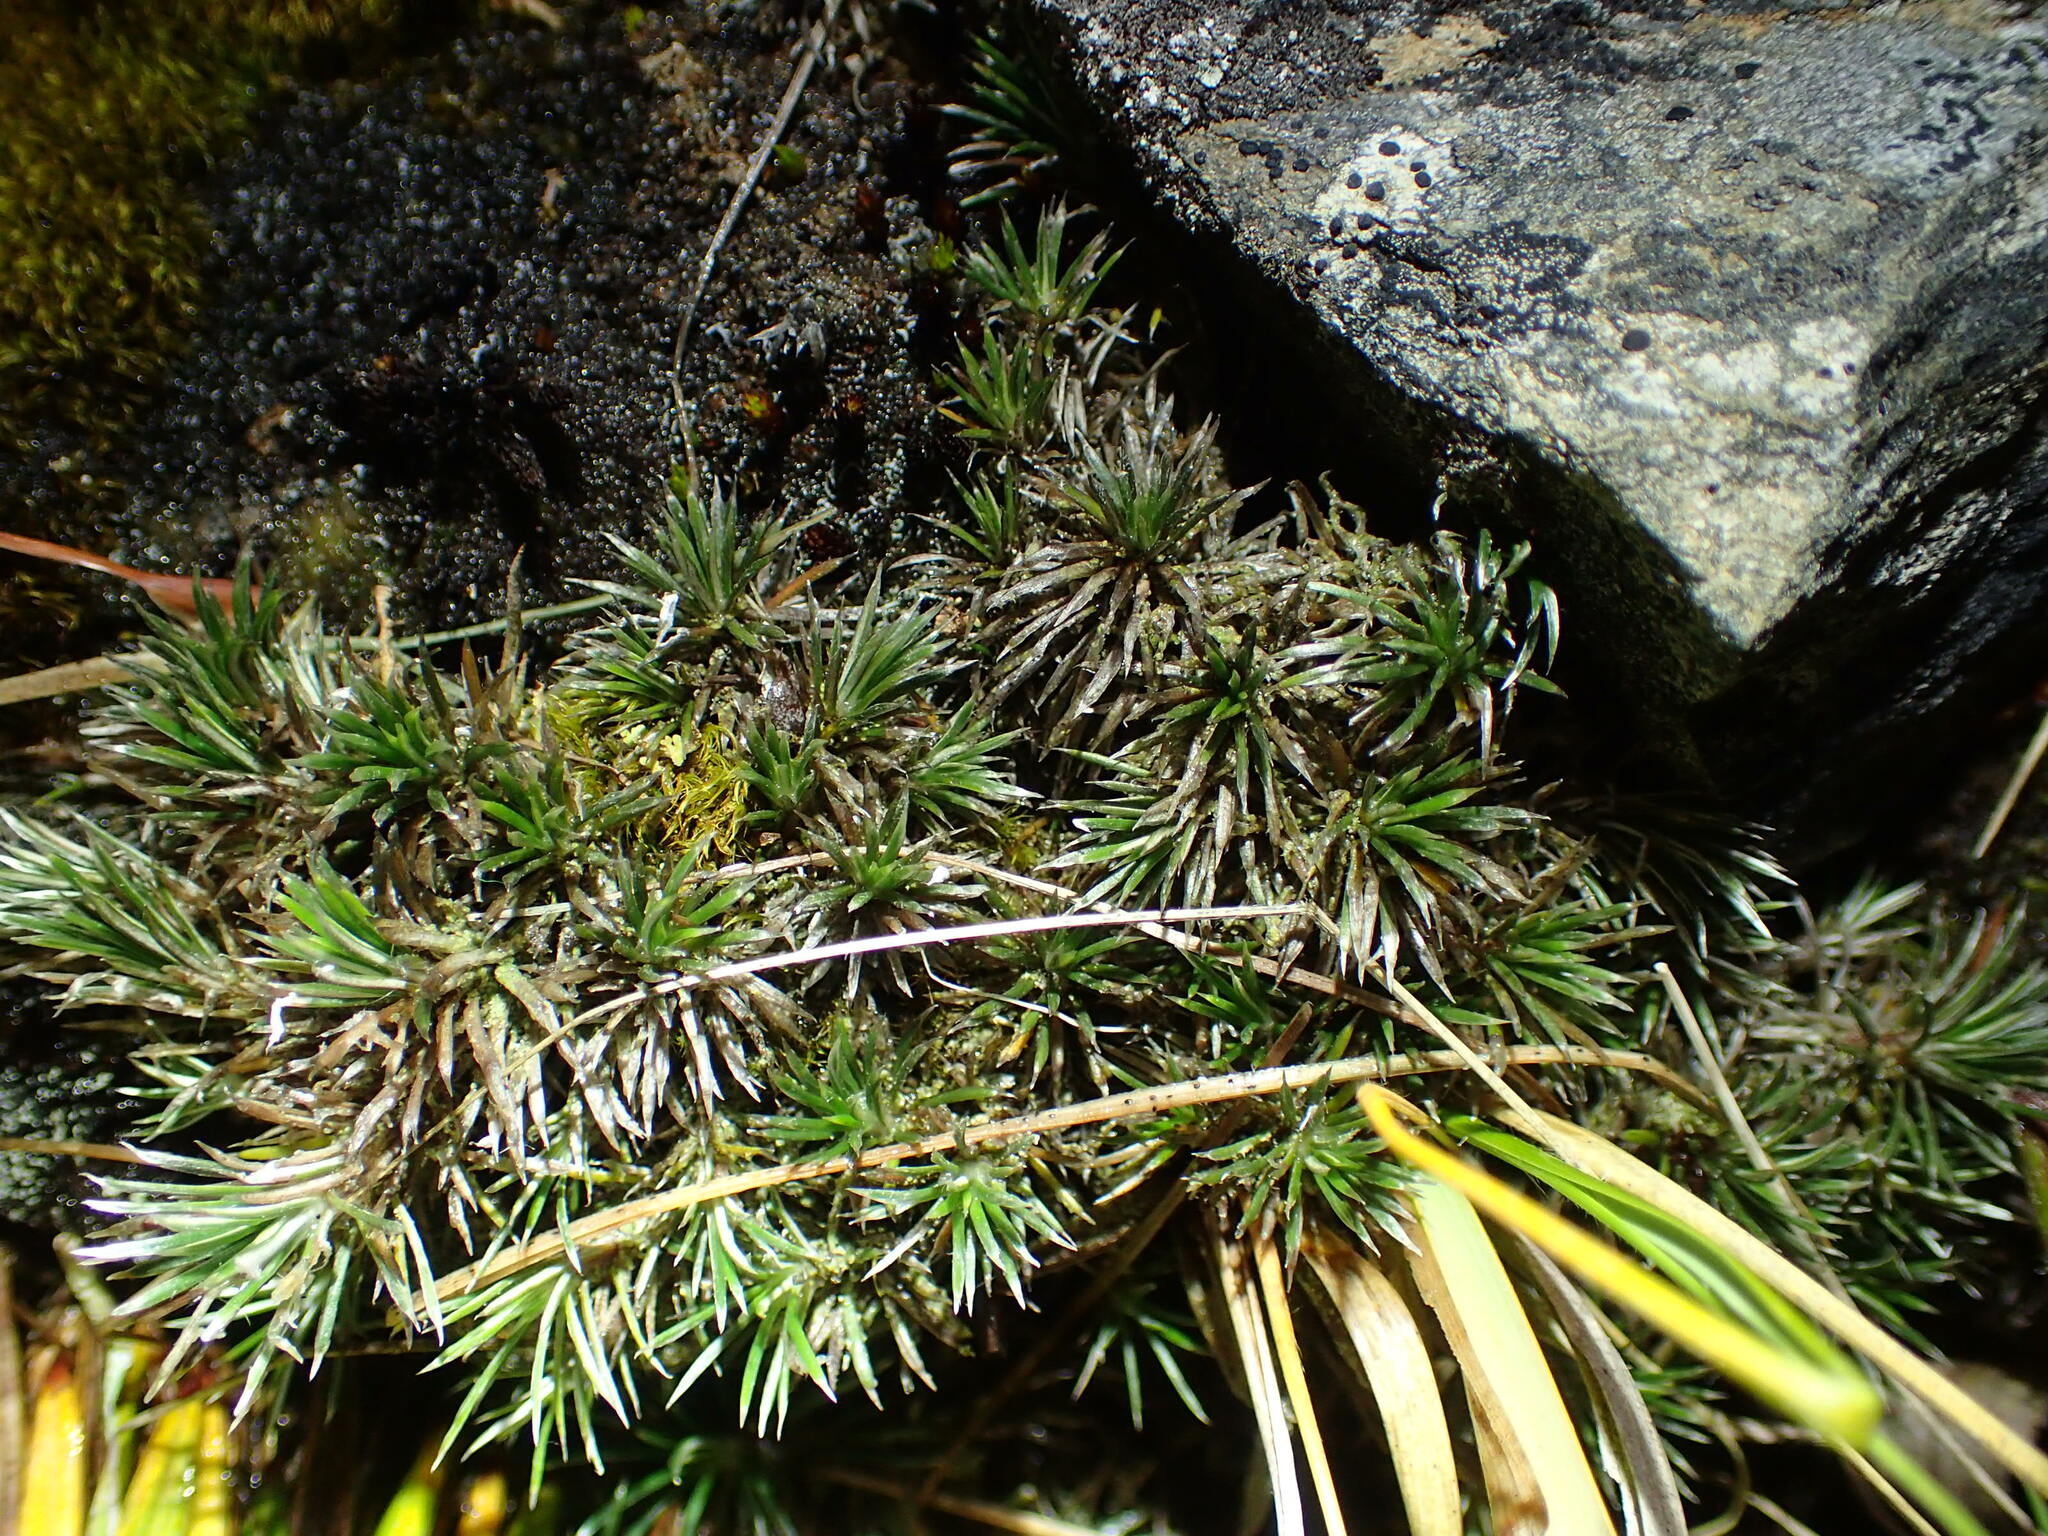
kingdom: Plantae
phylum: Tracheophyta
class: Magnoliopsida
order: Asterales
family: Asteraceae
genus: Celmisia
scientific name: Celmisia laricifolia
